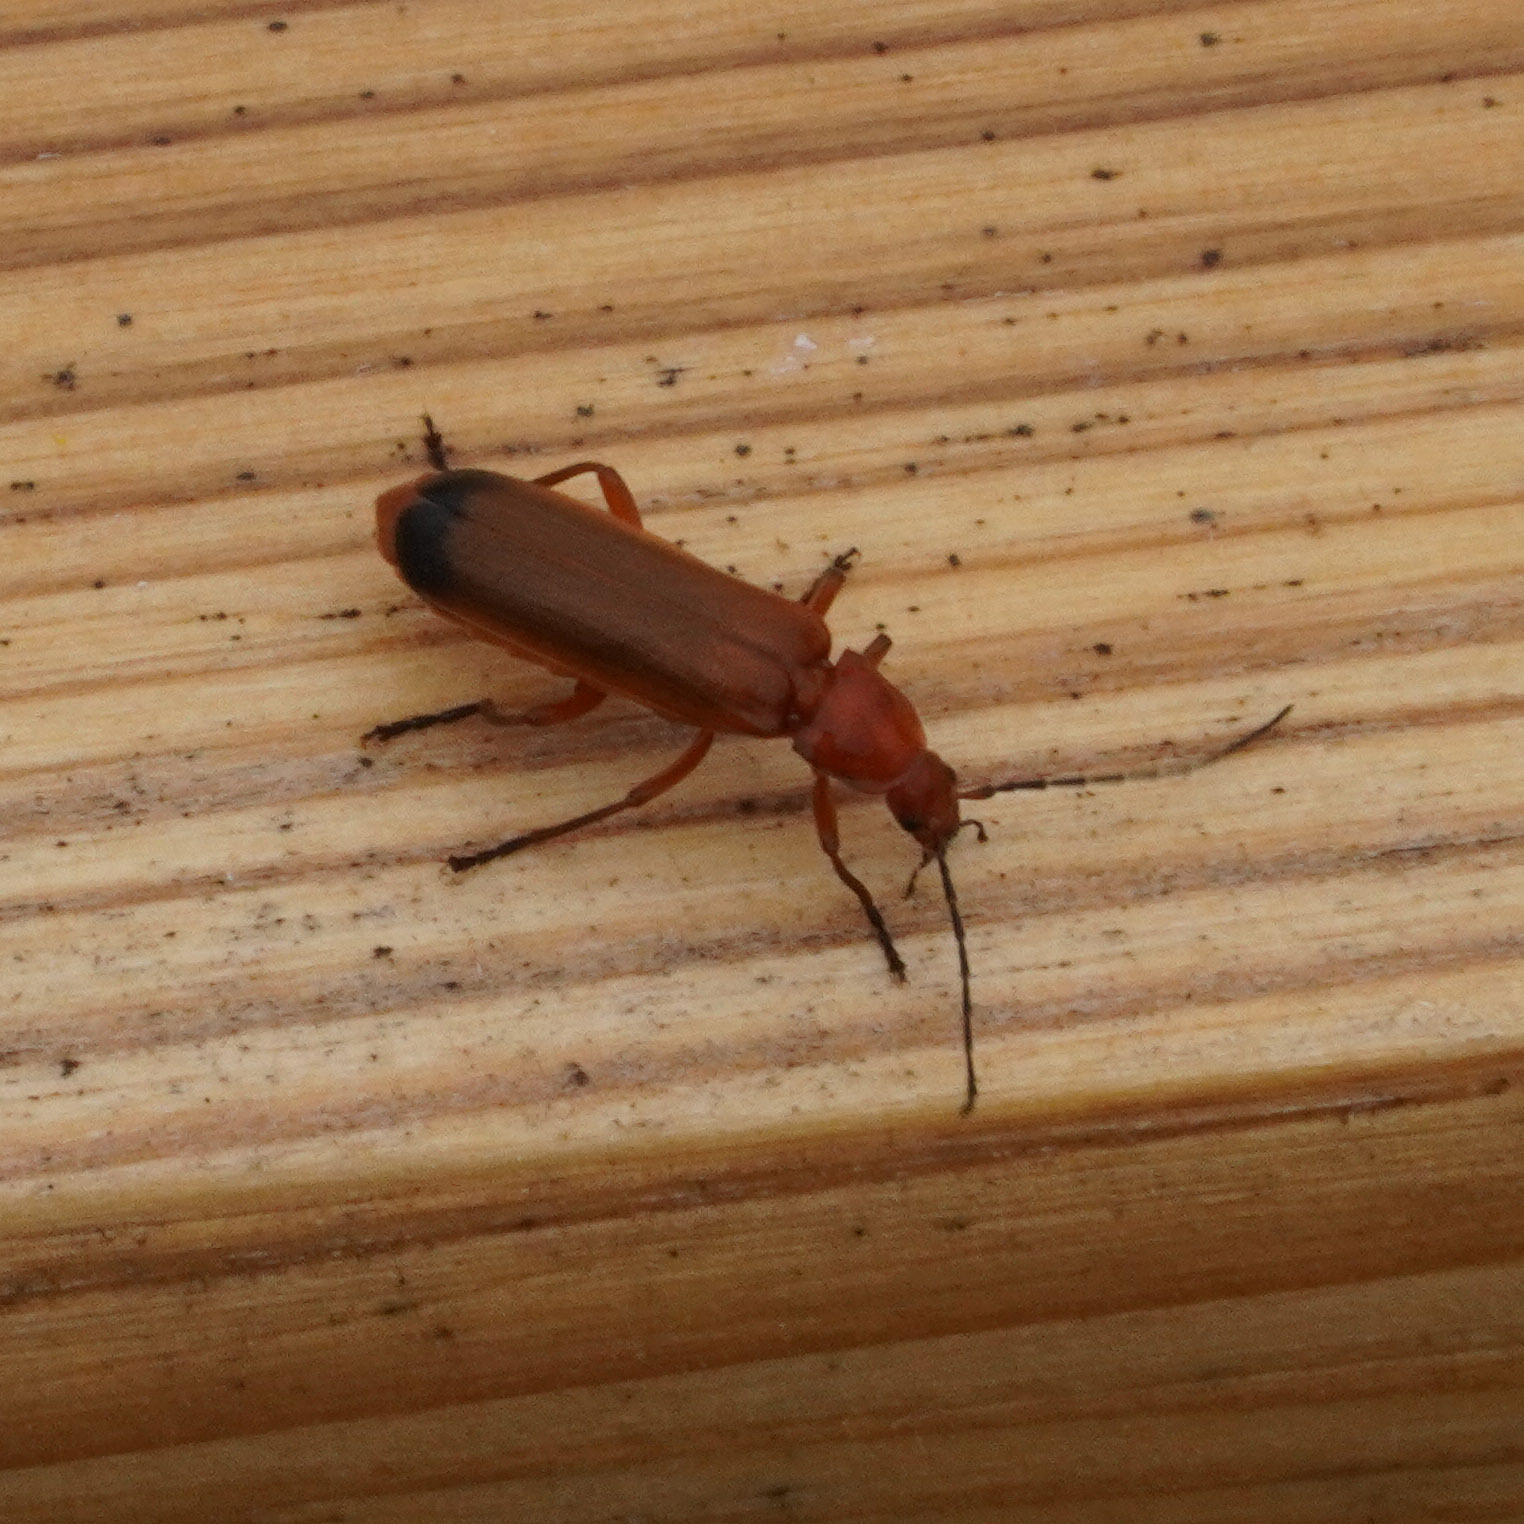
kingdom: Animalia
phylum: Arthropoda
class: Insecta
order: Coleoptera
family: Cantharidae
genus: Rhagonycha
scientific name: Rhagonycha fulva
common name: Common red soldier beetle
